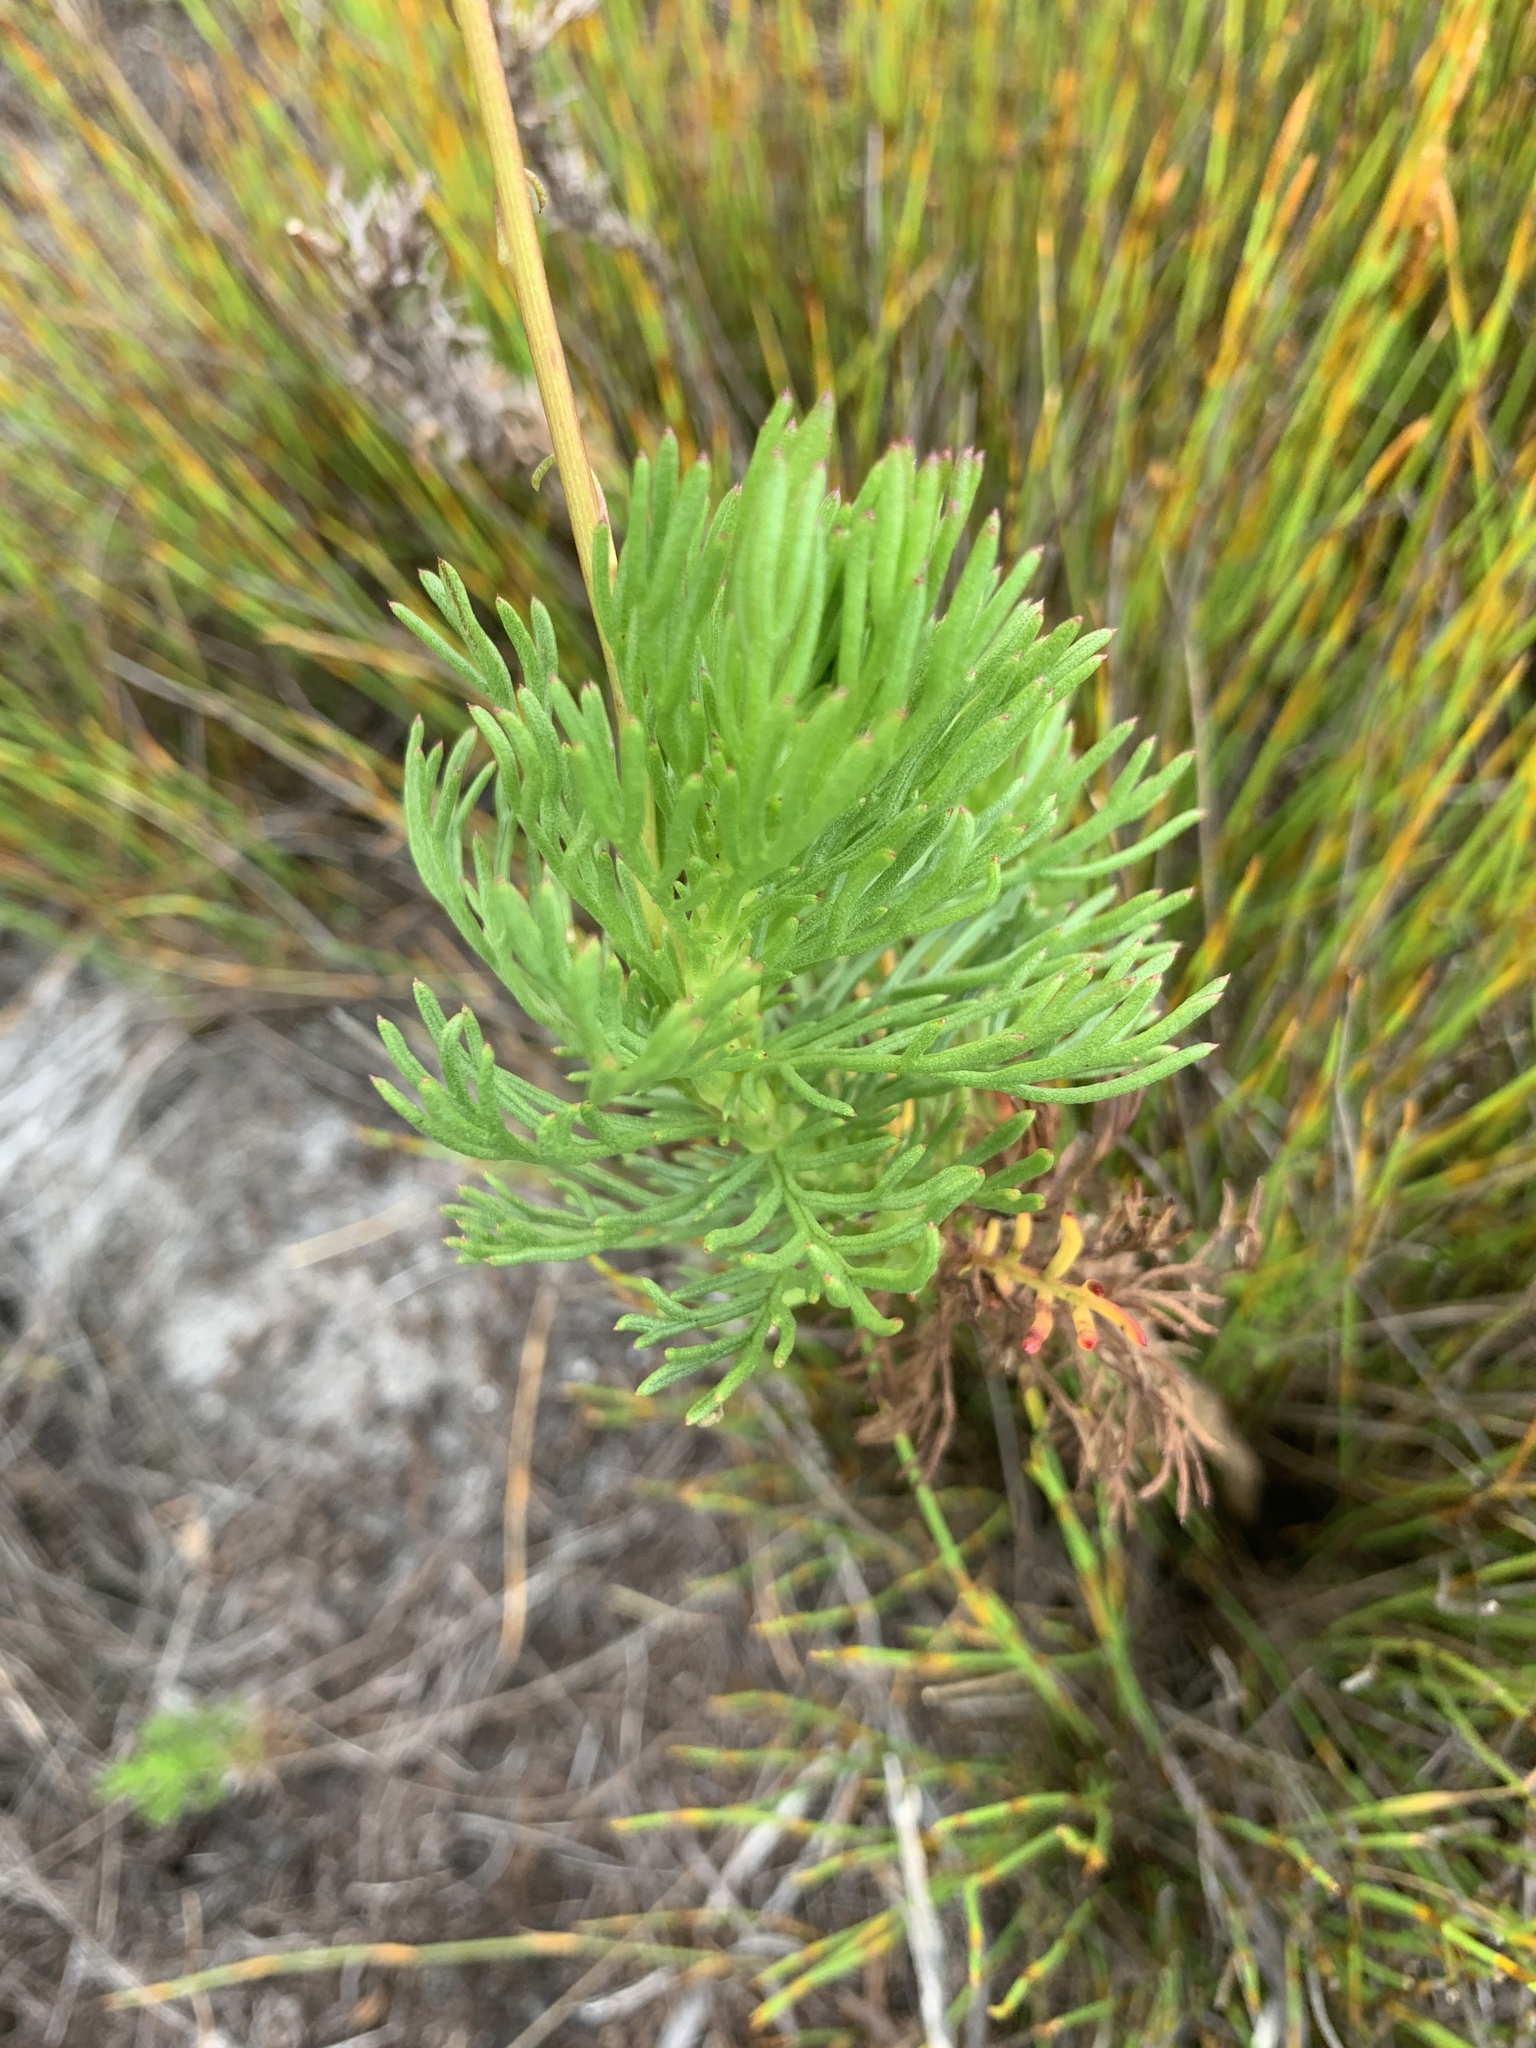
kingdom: Plantae
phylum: Tracheophyta
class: Magnoliopsida
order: Asterales
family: Asteraceae
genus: Ursinia
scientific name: Ursinia paleacea
